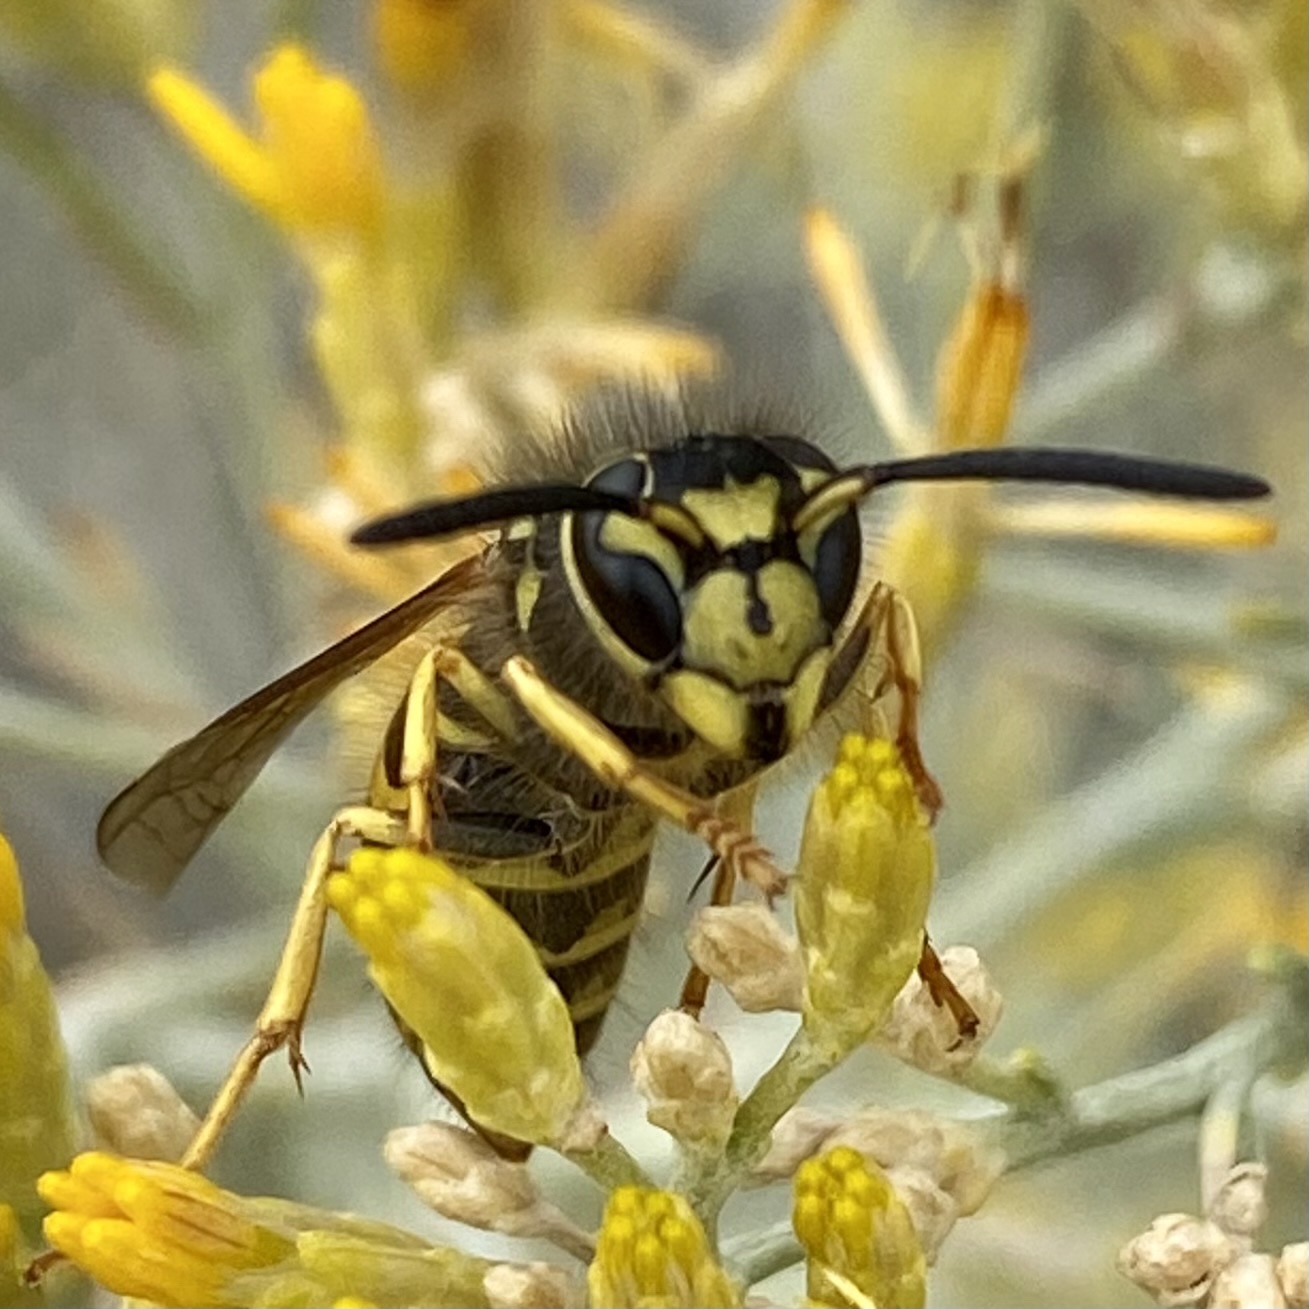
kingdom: Animalia
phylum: Arthropoda
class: Insecta
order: Hymenoptera
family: Vespidae
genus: Vespula
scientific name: Vespula pensylvanica
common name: Western yellowjacket
